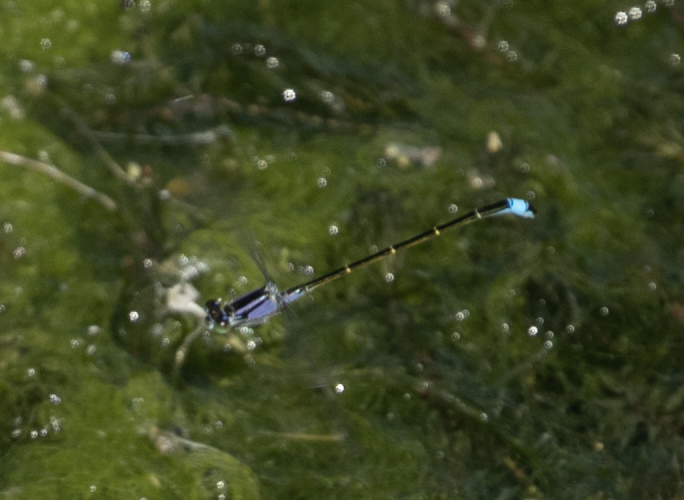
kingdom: Animalia
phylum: Arthropoda
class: Insecta
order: Odonata
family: Coenagrionidae
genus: Ischnura
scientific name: Ischnura elegans
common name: Blue-tailed damselfly
